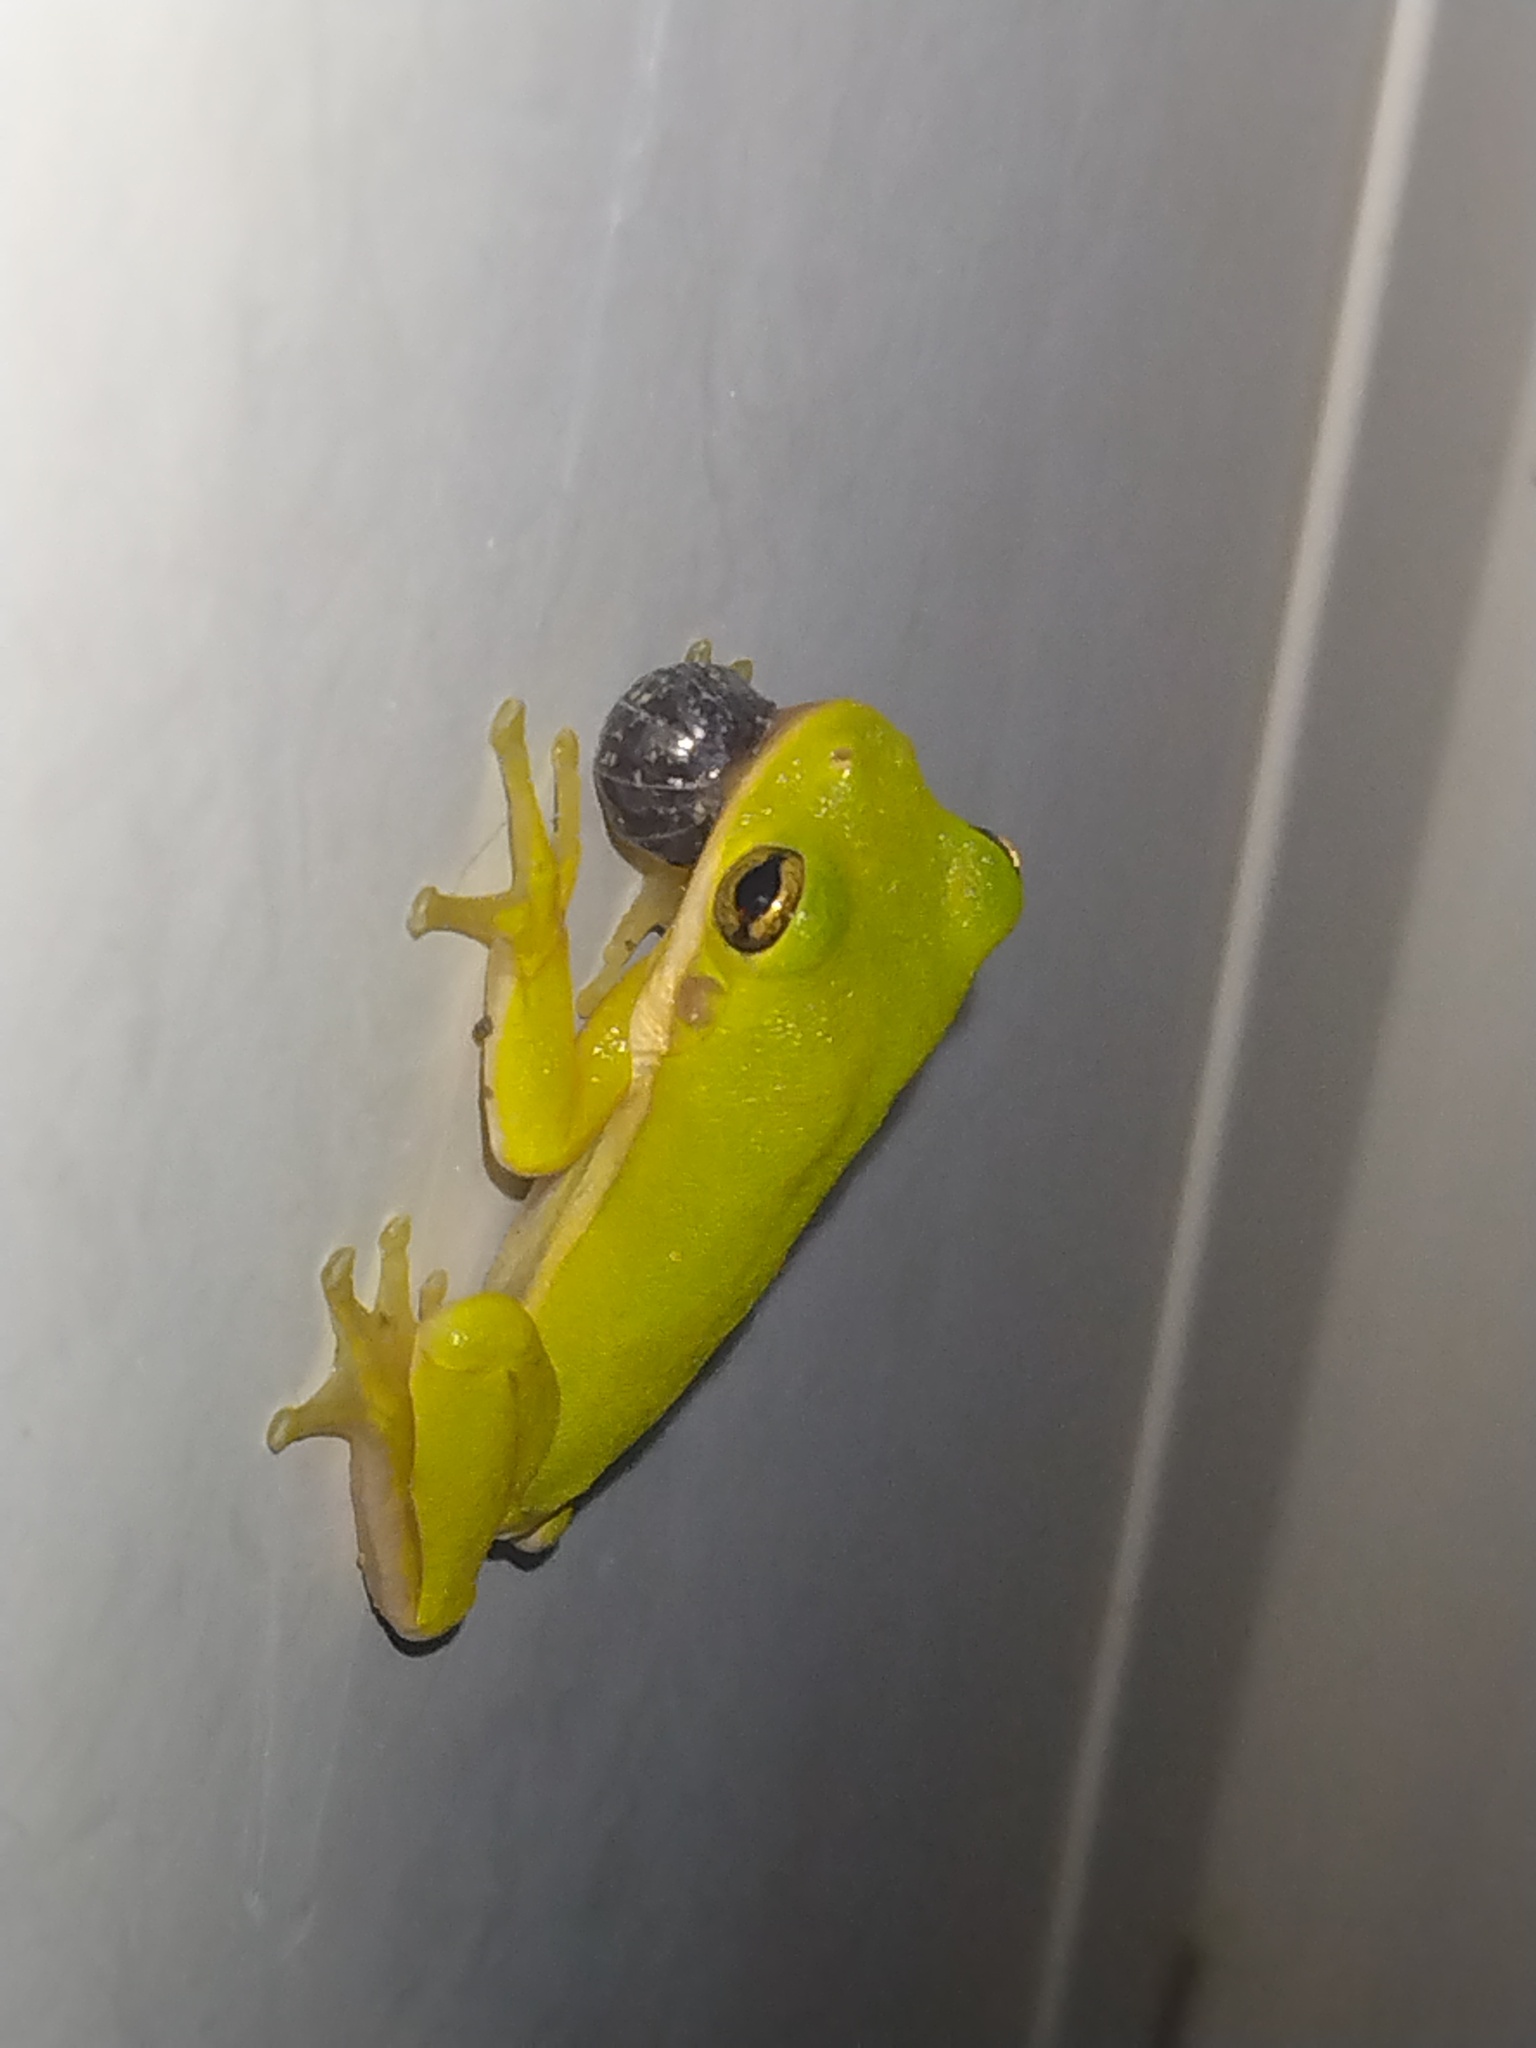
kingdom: Animalia
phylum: Chordata
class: Amphibia
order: Anura
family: Hylidae
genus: Dryophytes
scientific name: Dryophytes cinereus
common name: Green treefrog
